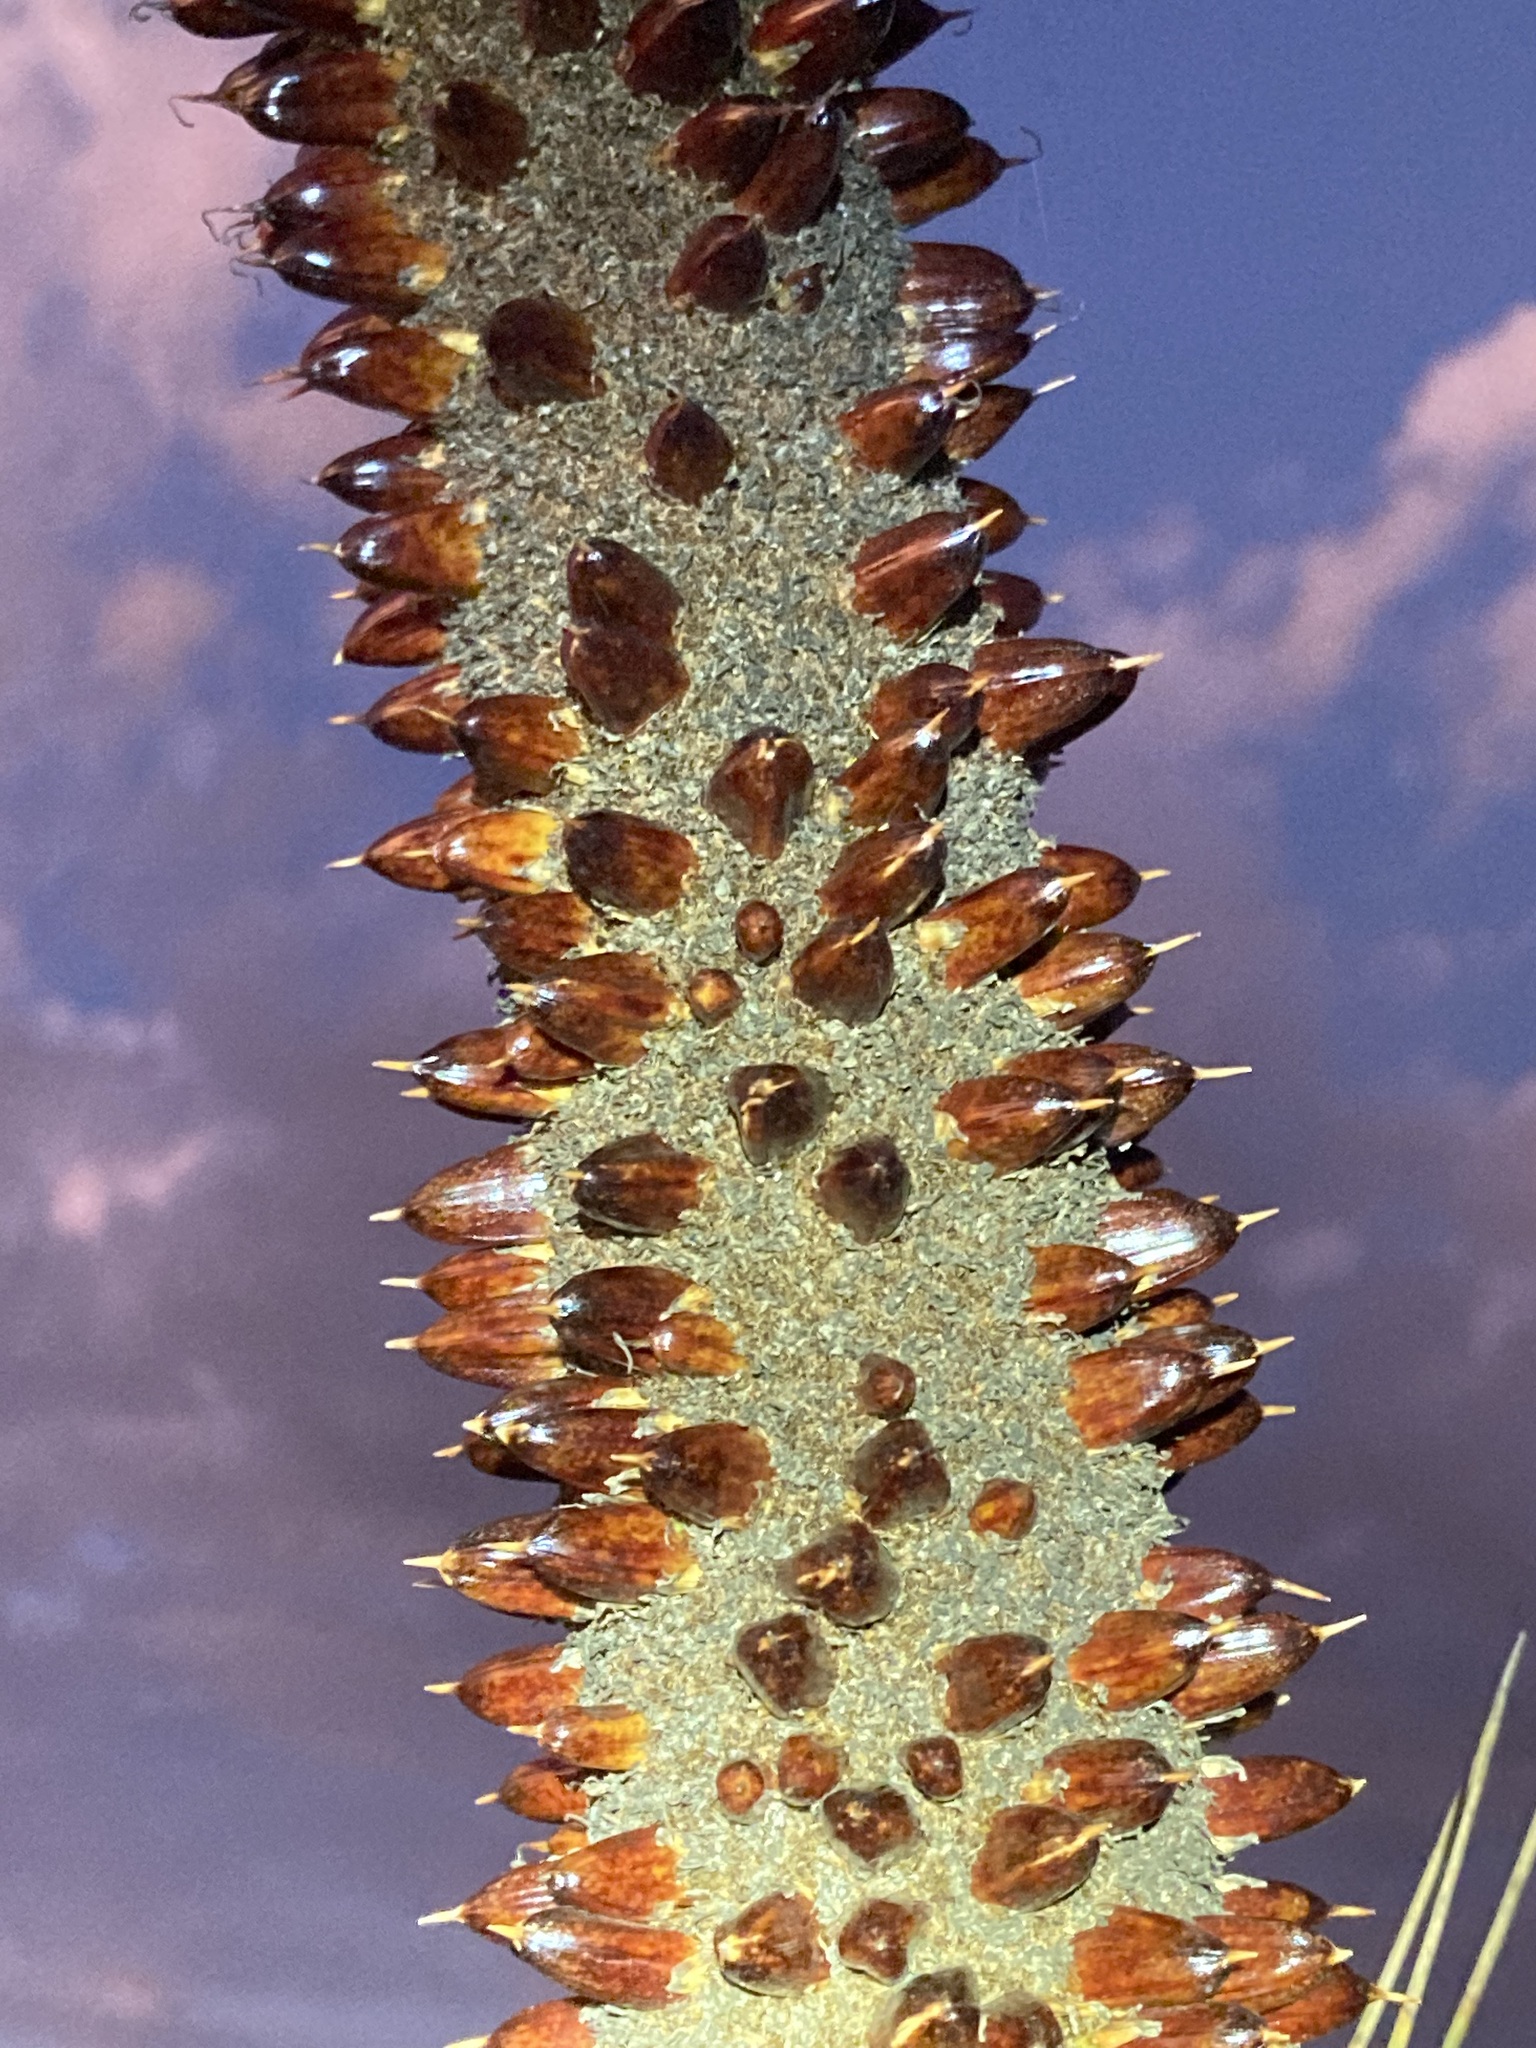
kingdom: Plantae
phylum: Tracheophyta
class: Liliopsida
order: Asparagales
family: Asphodelaceae
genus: Xanthorrhoea
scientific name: Xanthorrhoea drummondii
